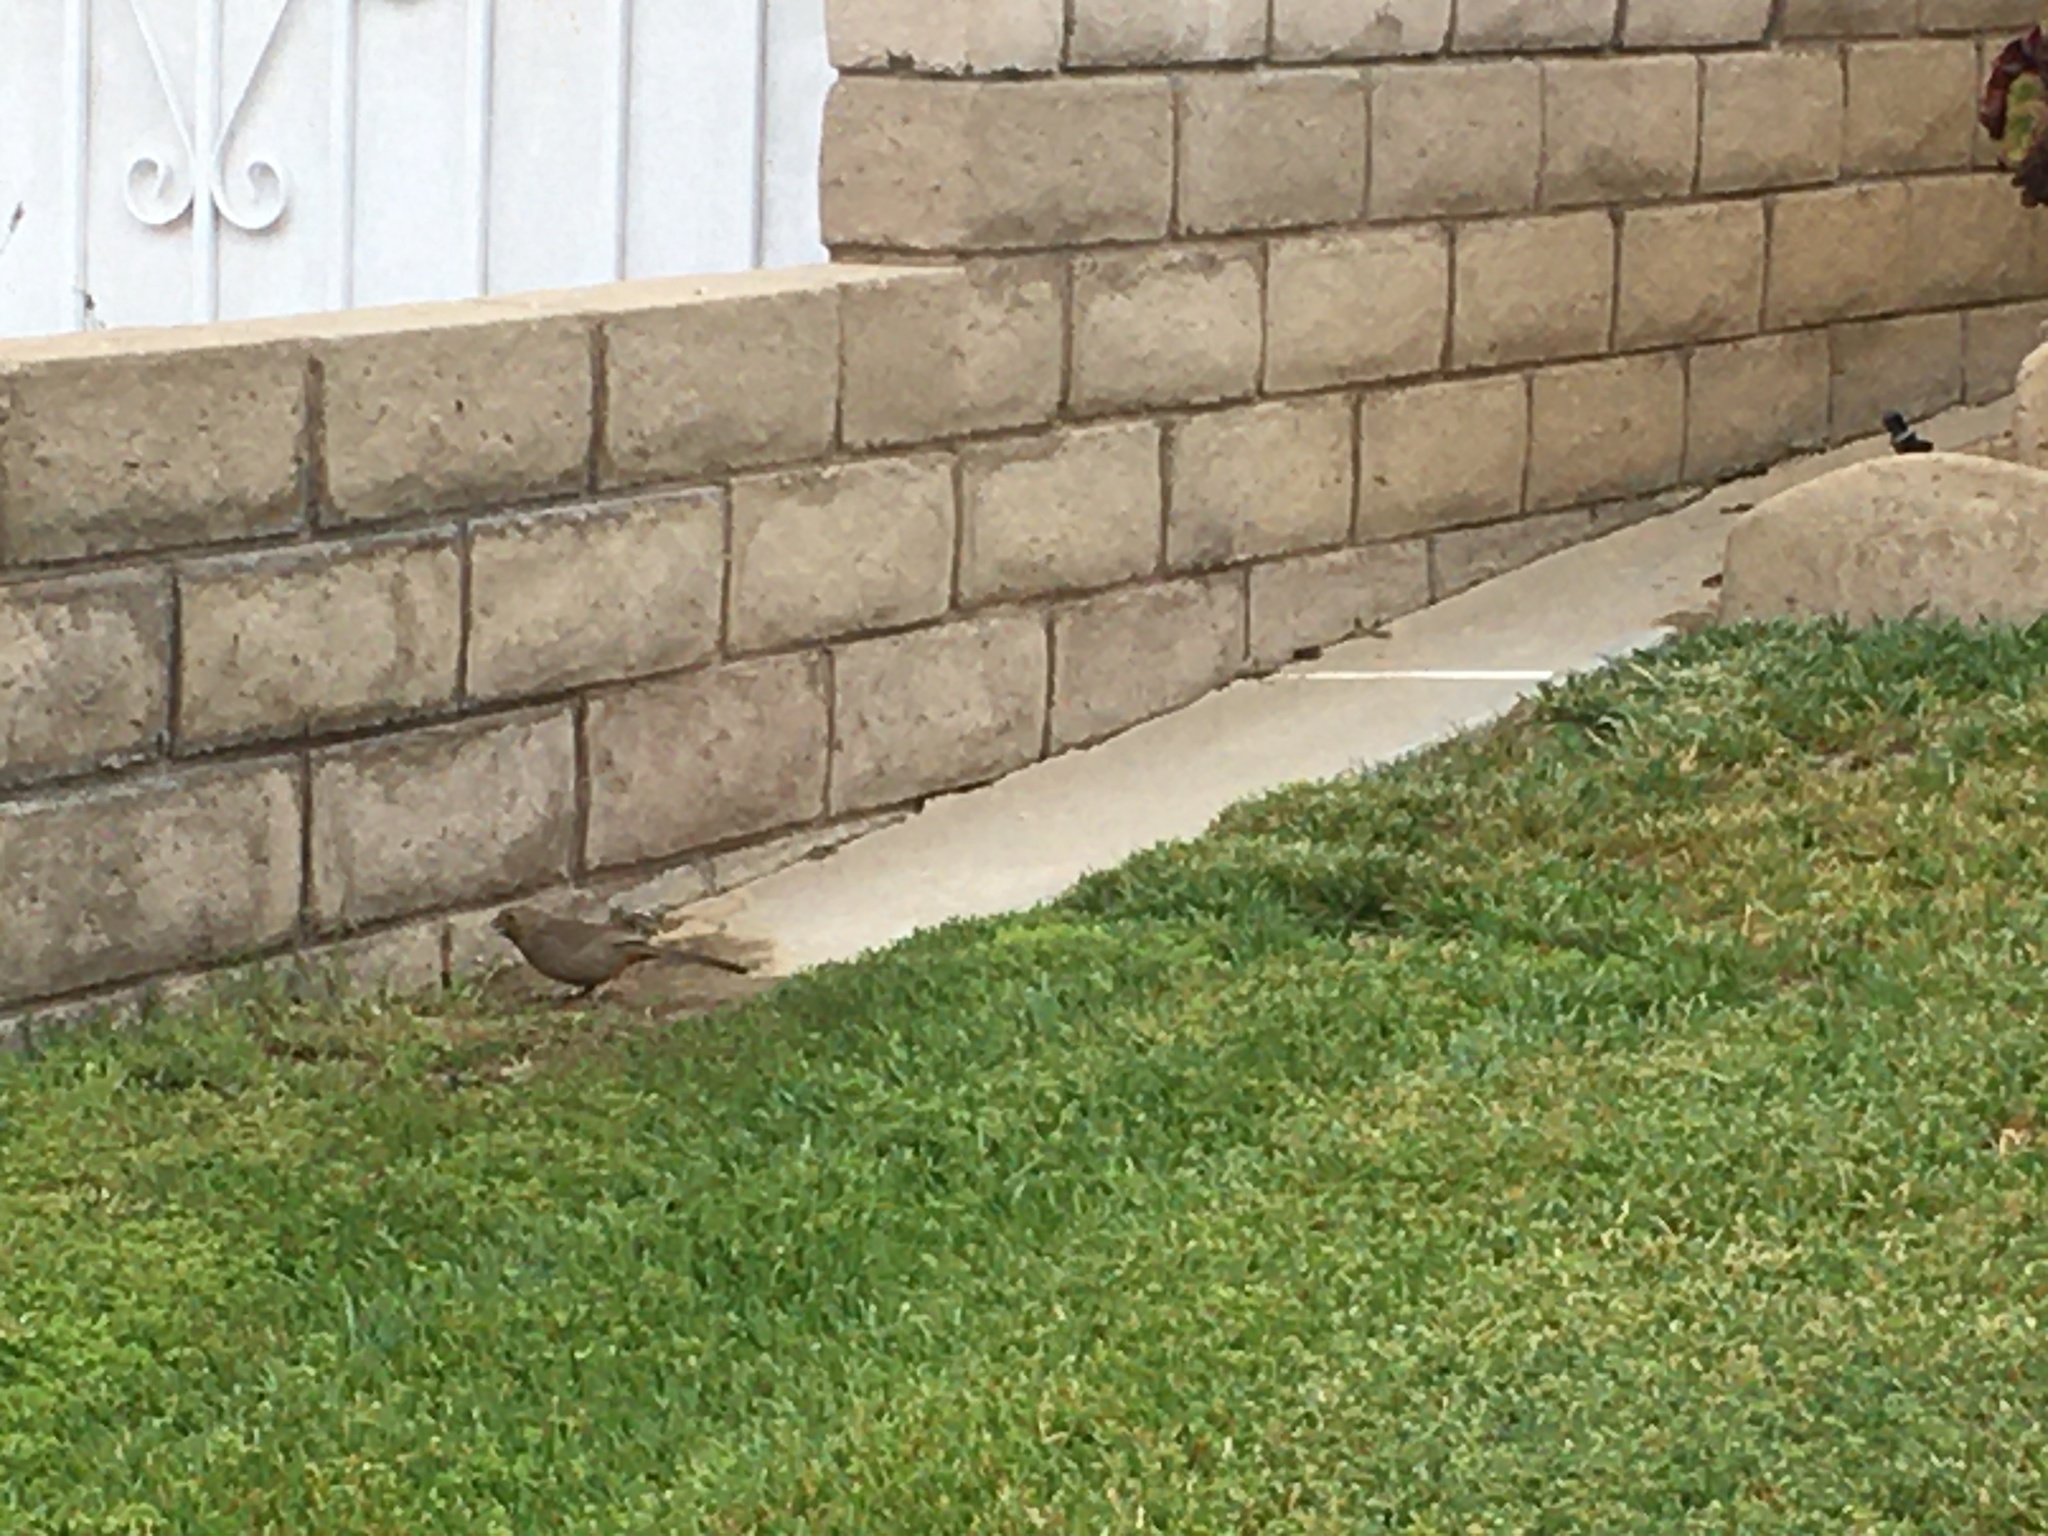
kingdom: Animalia
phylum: Chordata
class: Aves
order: Passeriformes
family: Passerellidae
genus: Melozone
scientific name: Melozone crissalis
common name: California towhee
